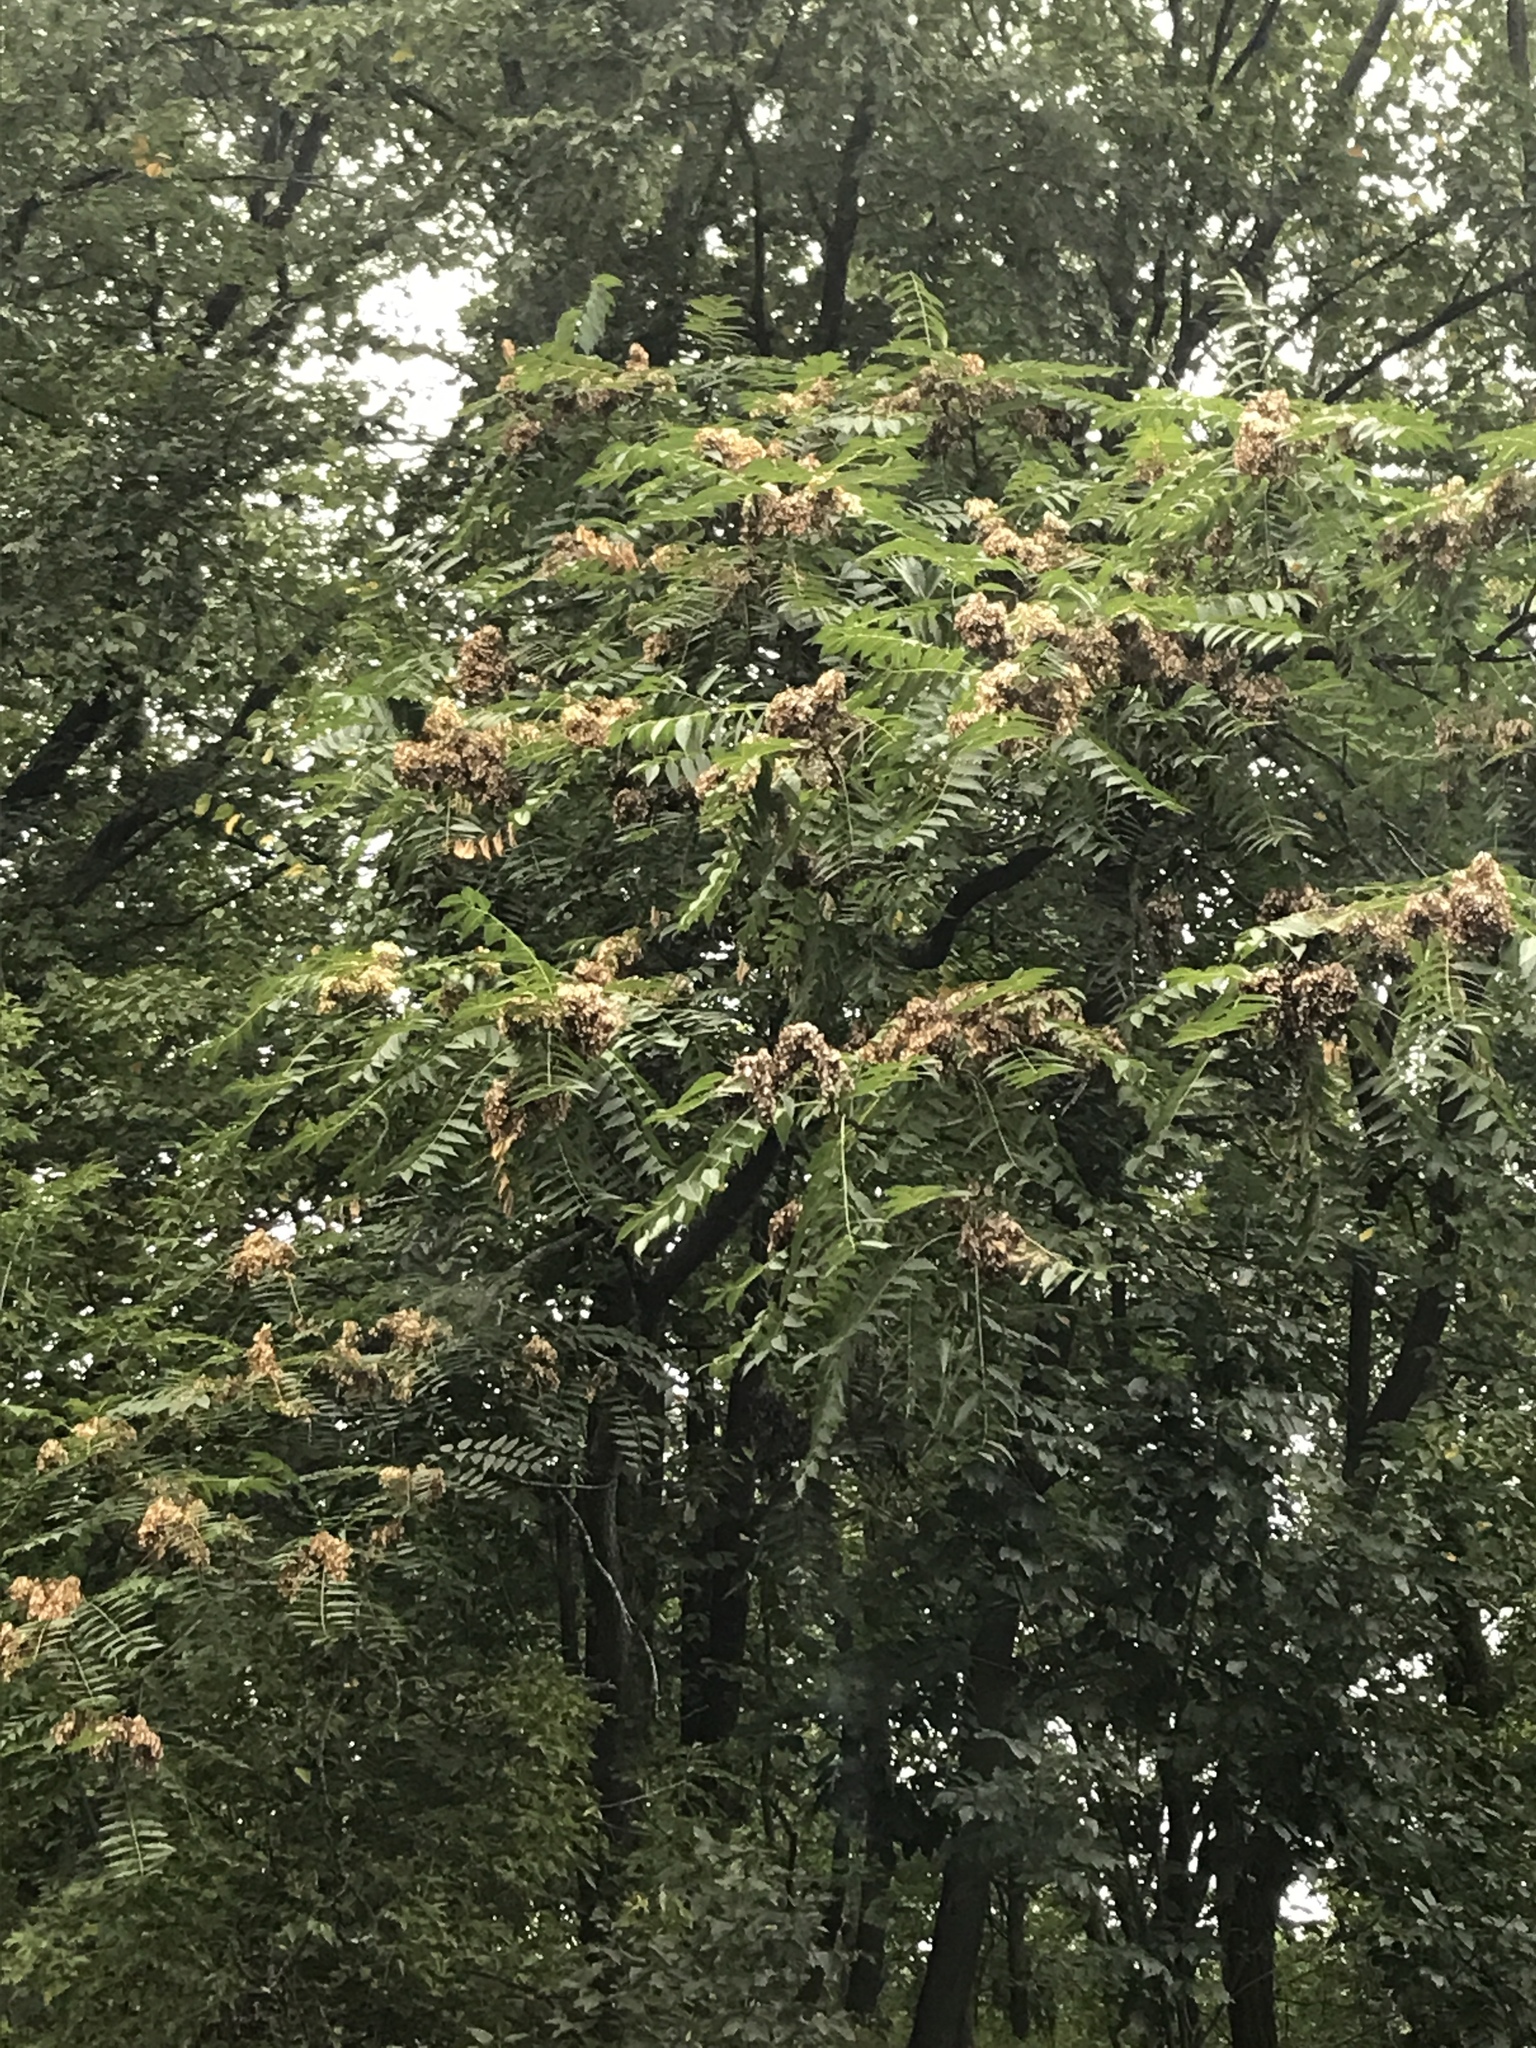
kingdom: Plantae
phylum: Tracheophyta
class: Magnoliopsida
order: Sapindales
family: Simaroubaceae
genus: Ailanthus
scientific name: Ailanthus altissima
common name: Tree-of-heaven
